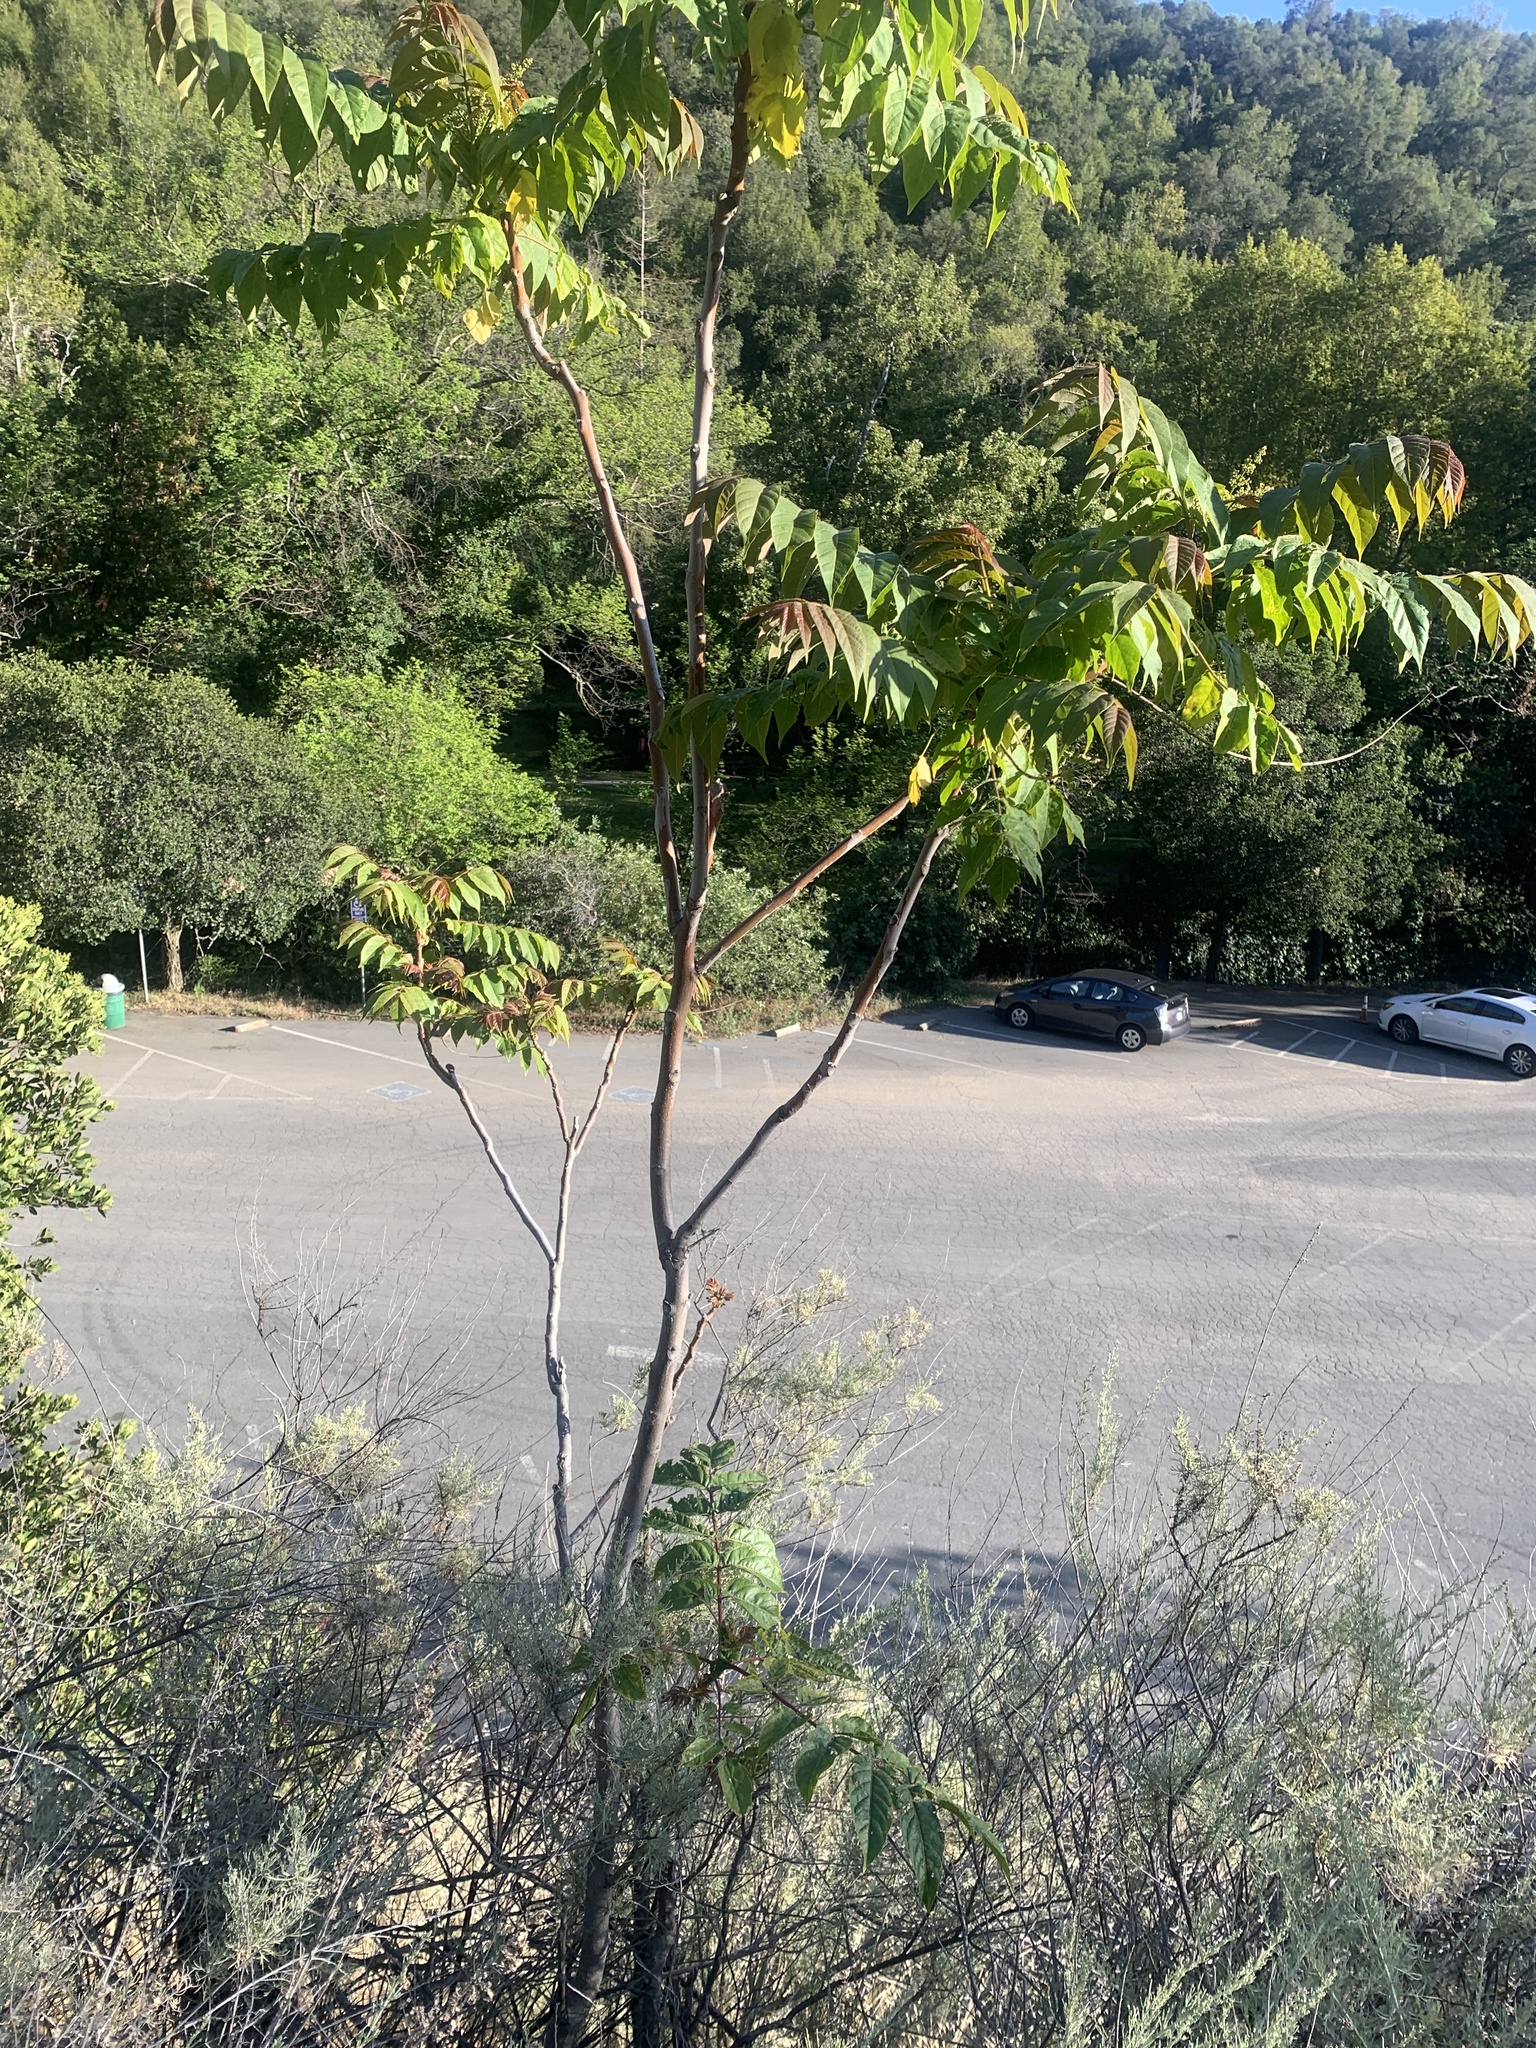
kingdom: Plantae
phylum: Tracheophyta
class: Magnoliopsida
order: Sapindales
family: Simaroubaceae
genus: Ailanthus
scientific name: Ailanthus altissima
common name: Tree-of-heaven
